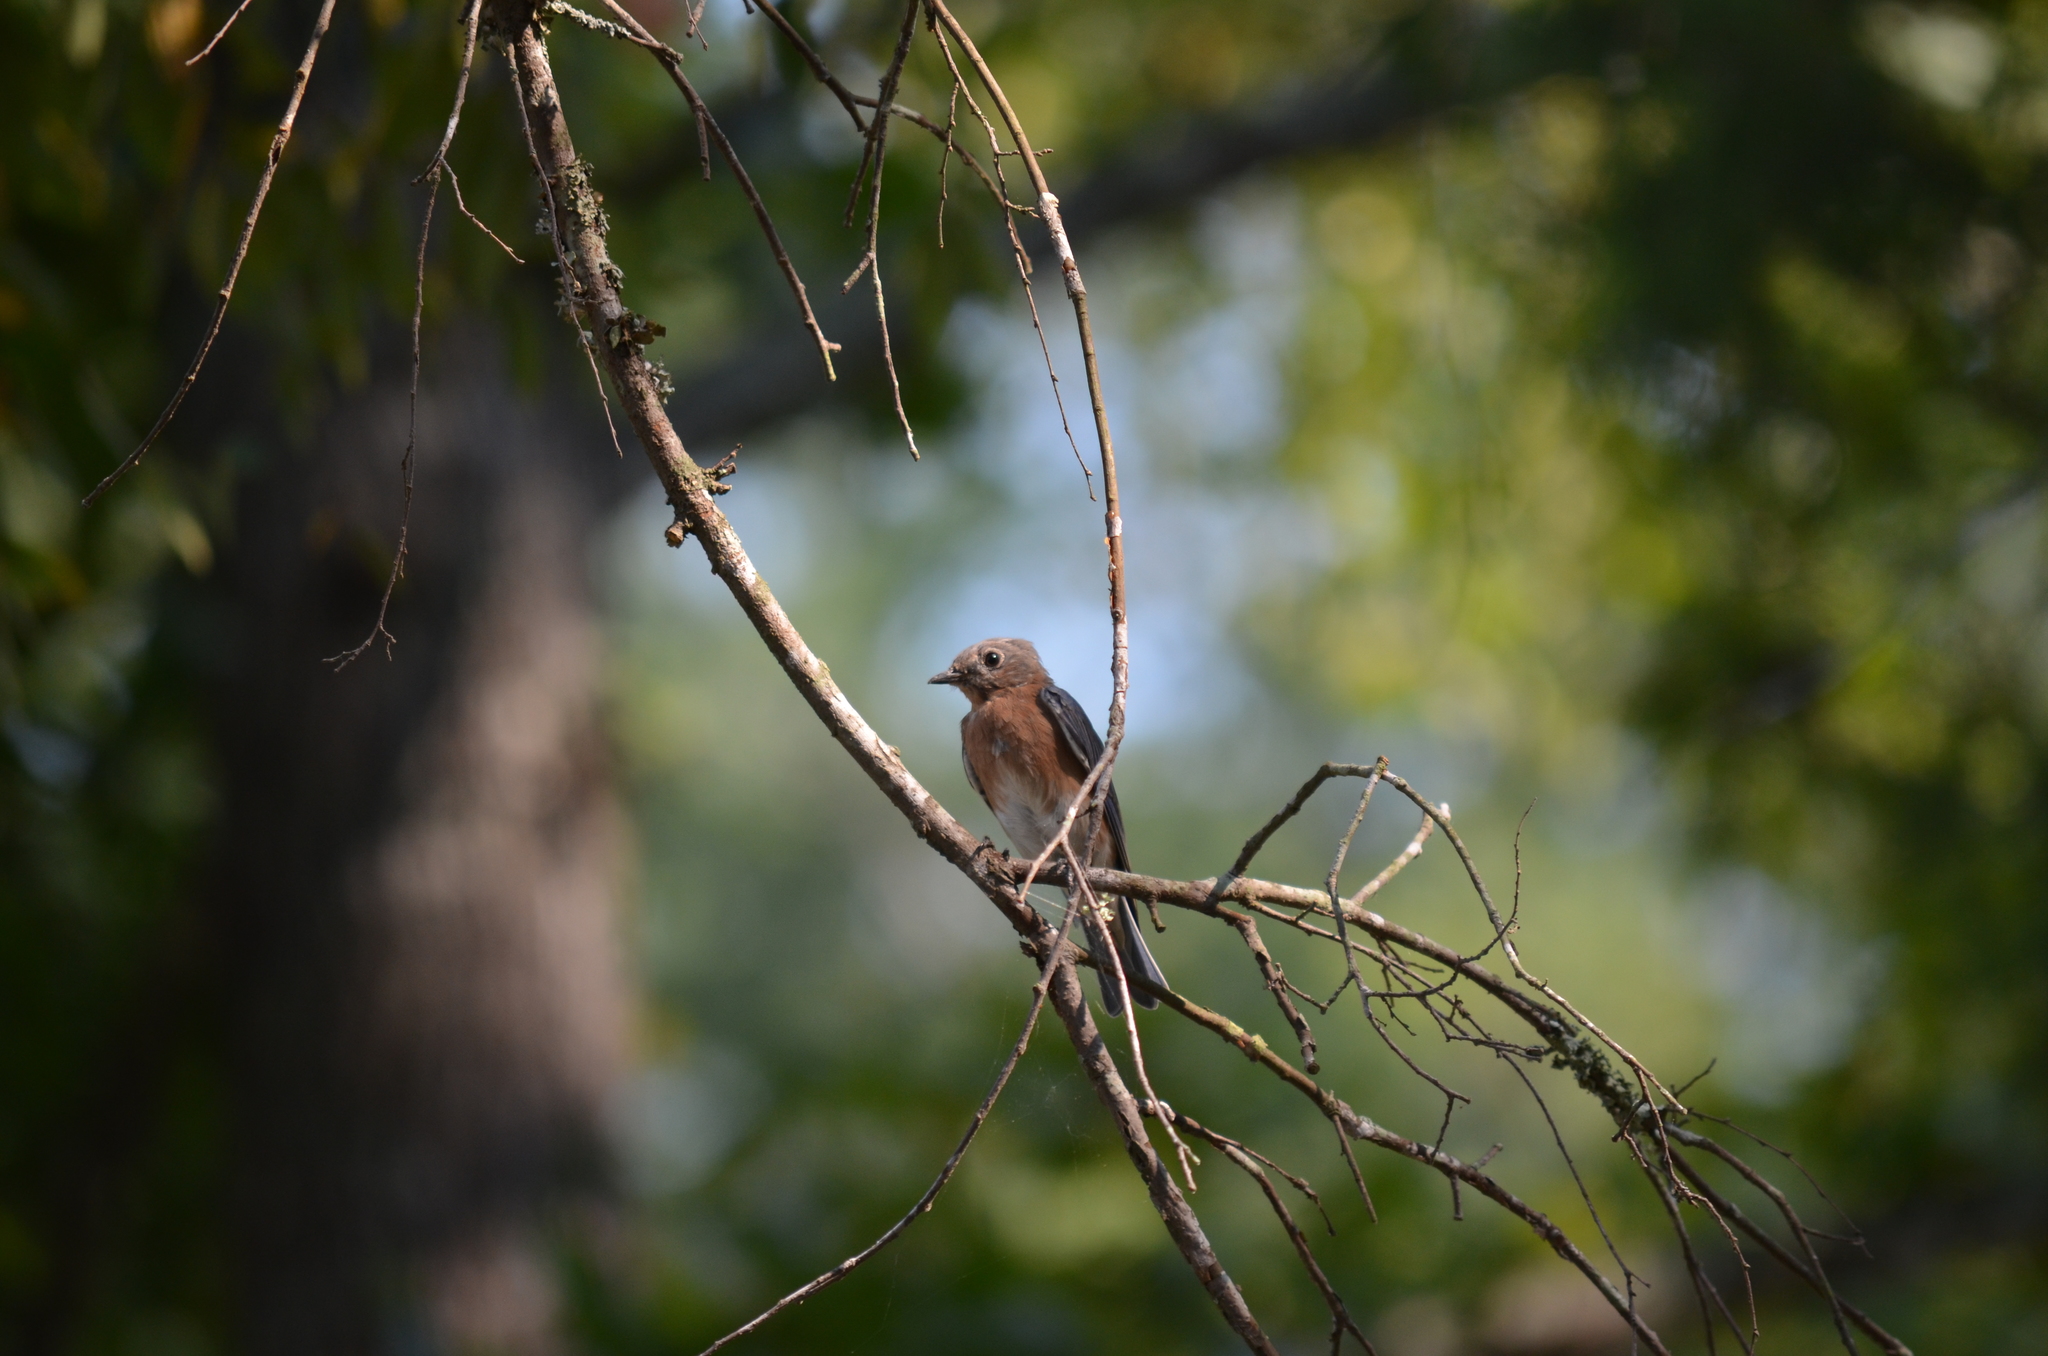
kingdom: Animalia
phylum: Chordata
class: Aves
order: Passeriformes
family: Turdidae
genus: Sialia
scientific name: Sialia sialis
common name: Eastern bluebird
